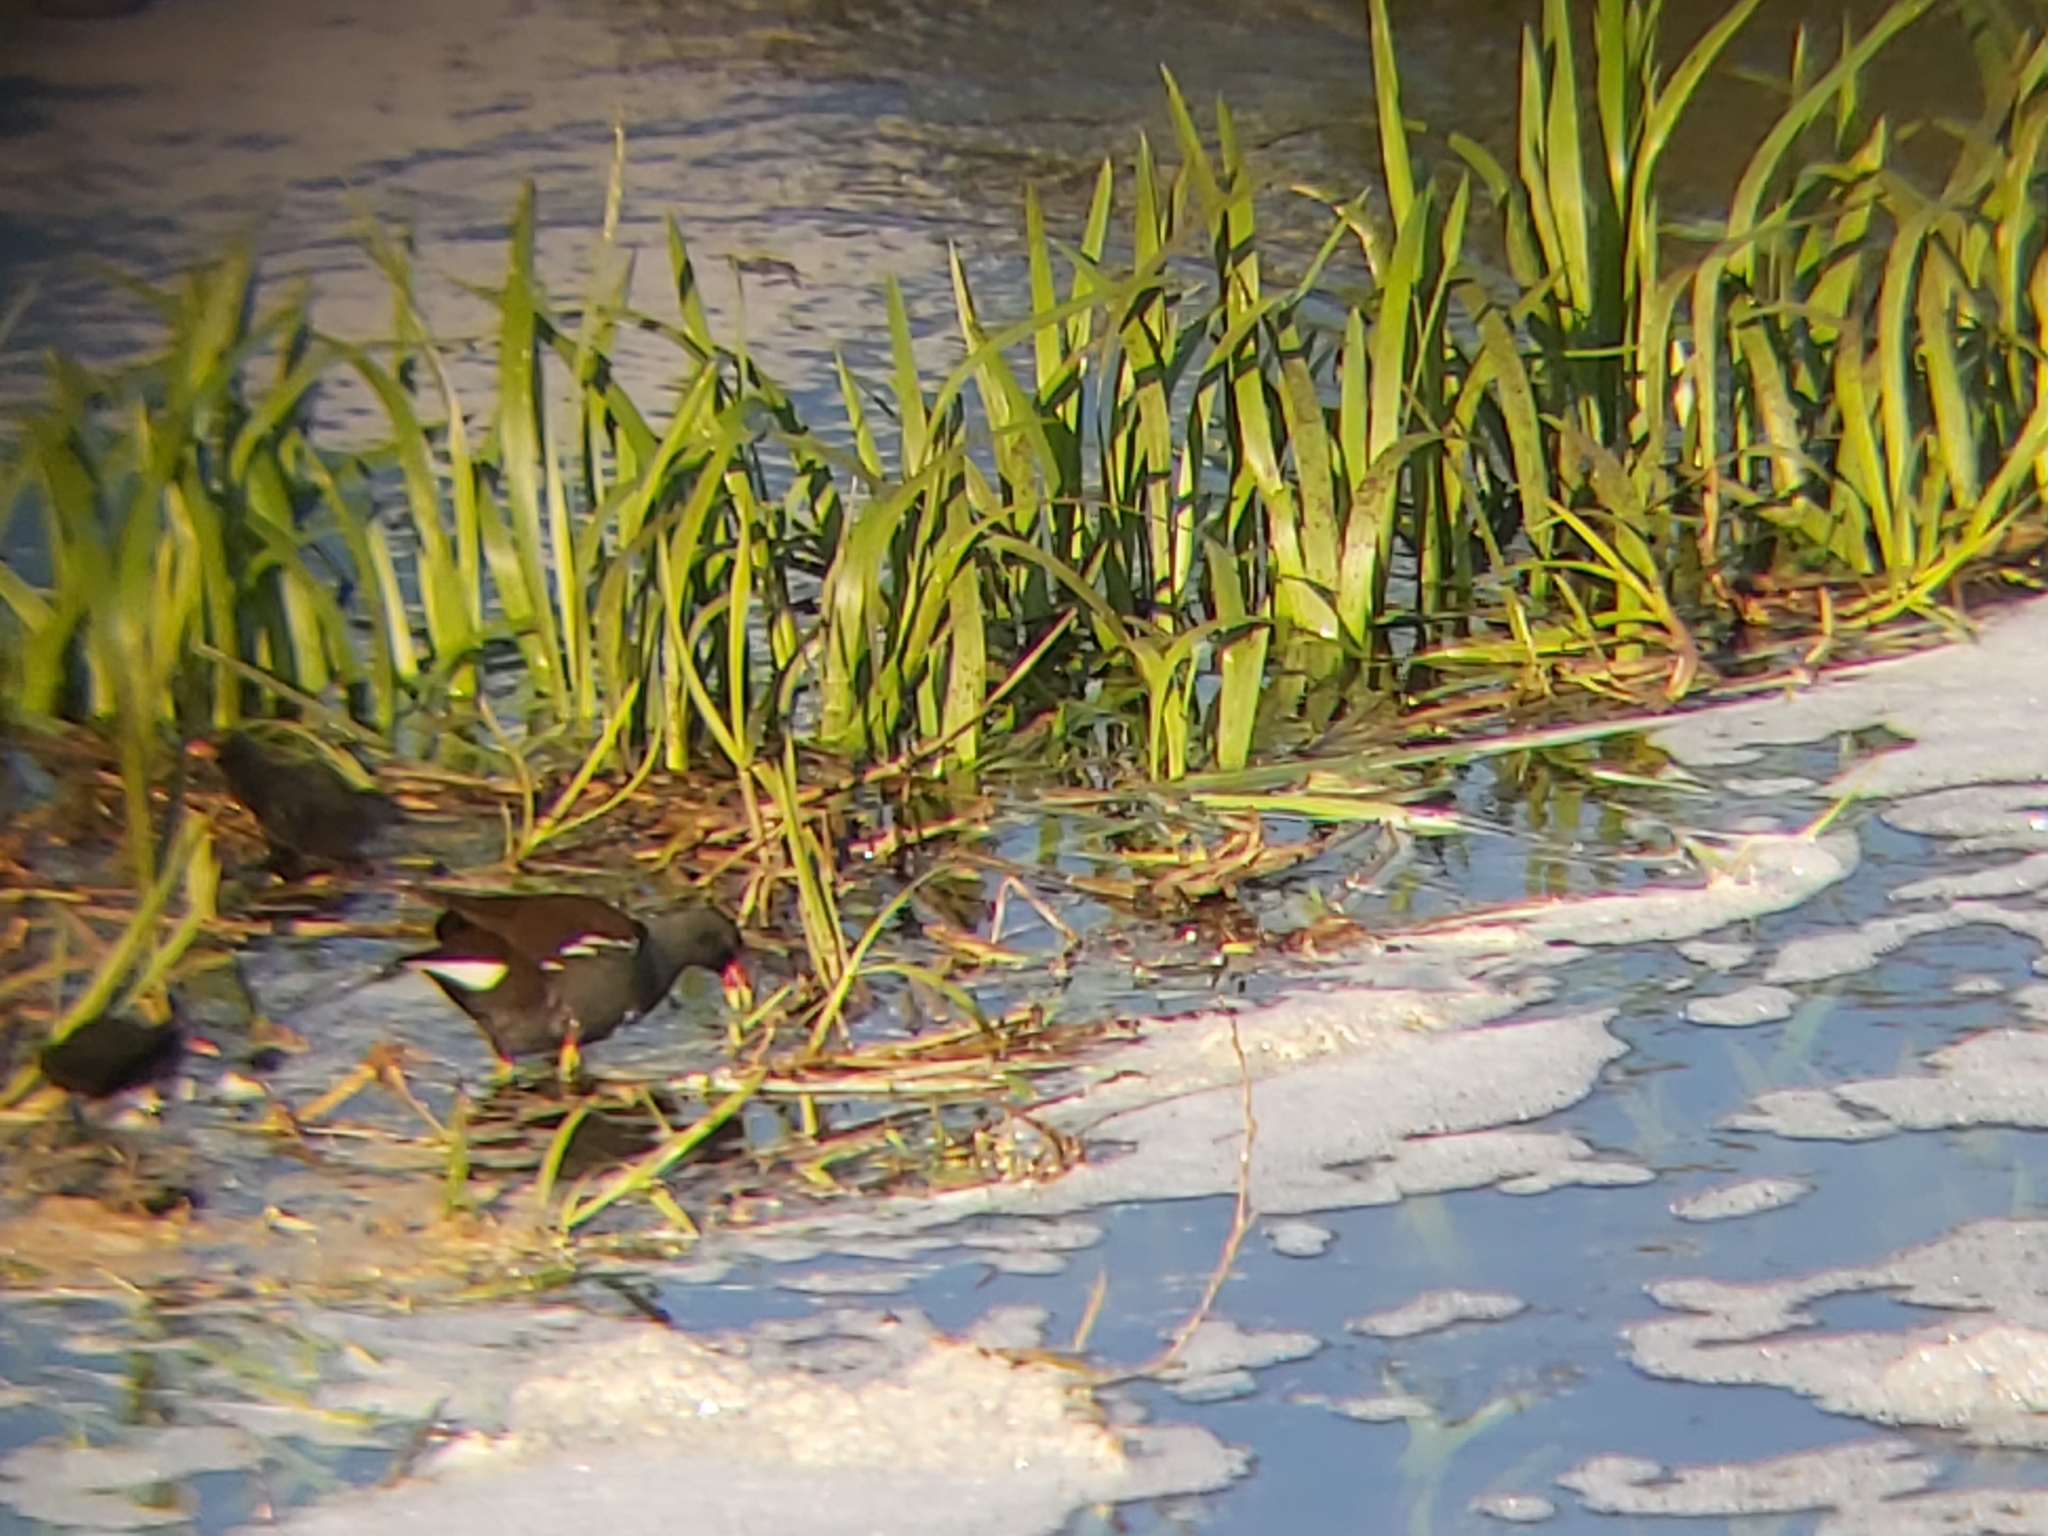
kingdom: Animalia
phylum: Chordata
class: Aves
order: Gruiformes
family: Rallidae
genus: Gallinula
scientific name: Gallinula chloropus
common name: Common moorhen
